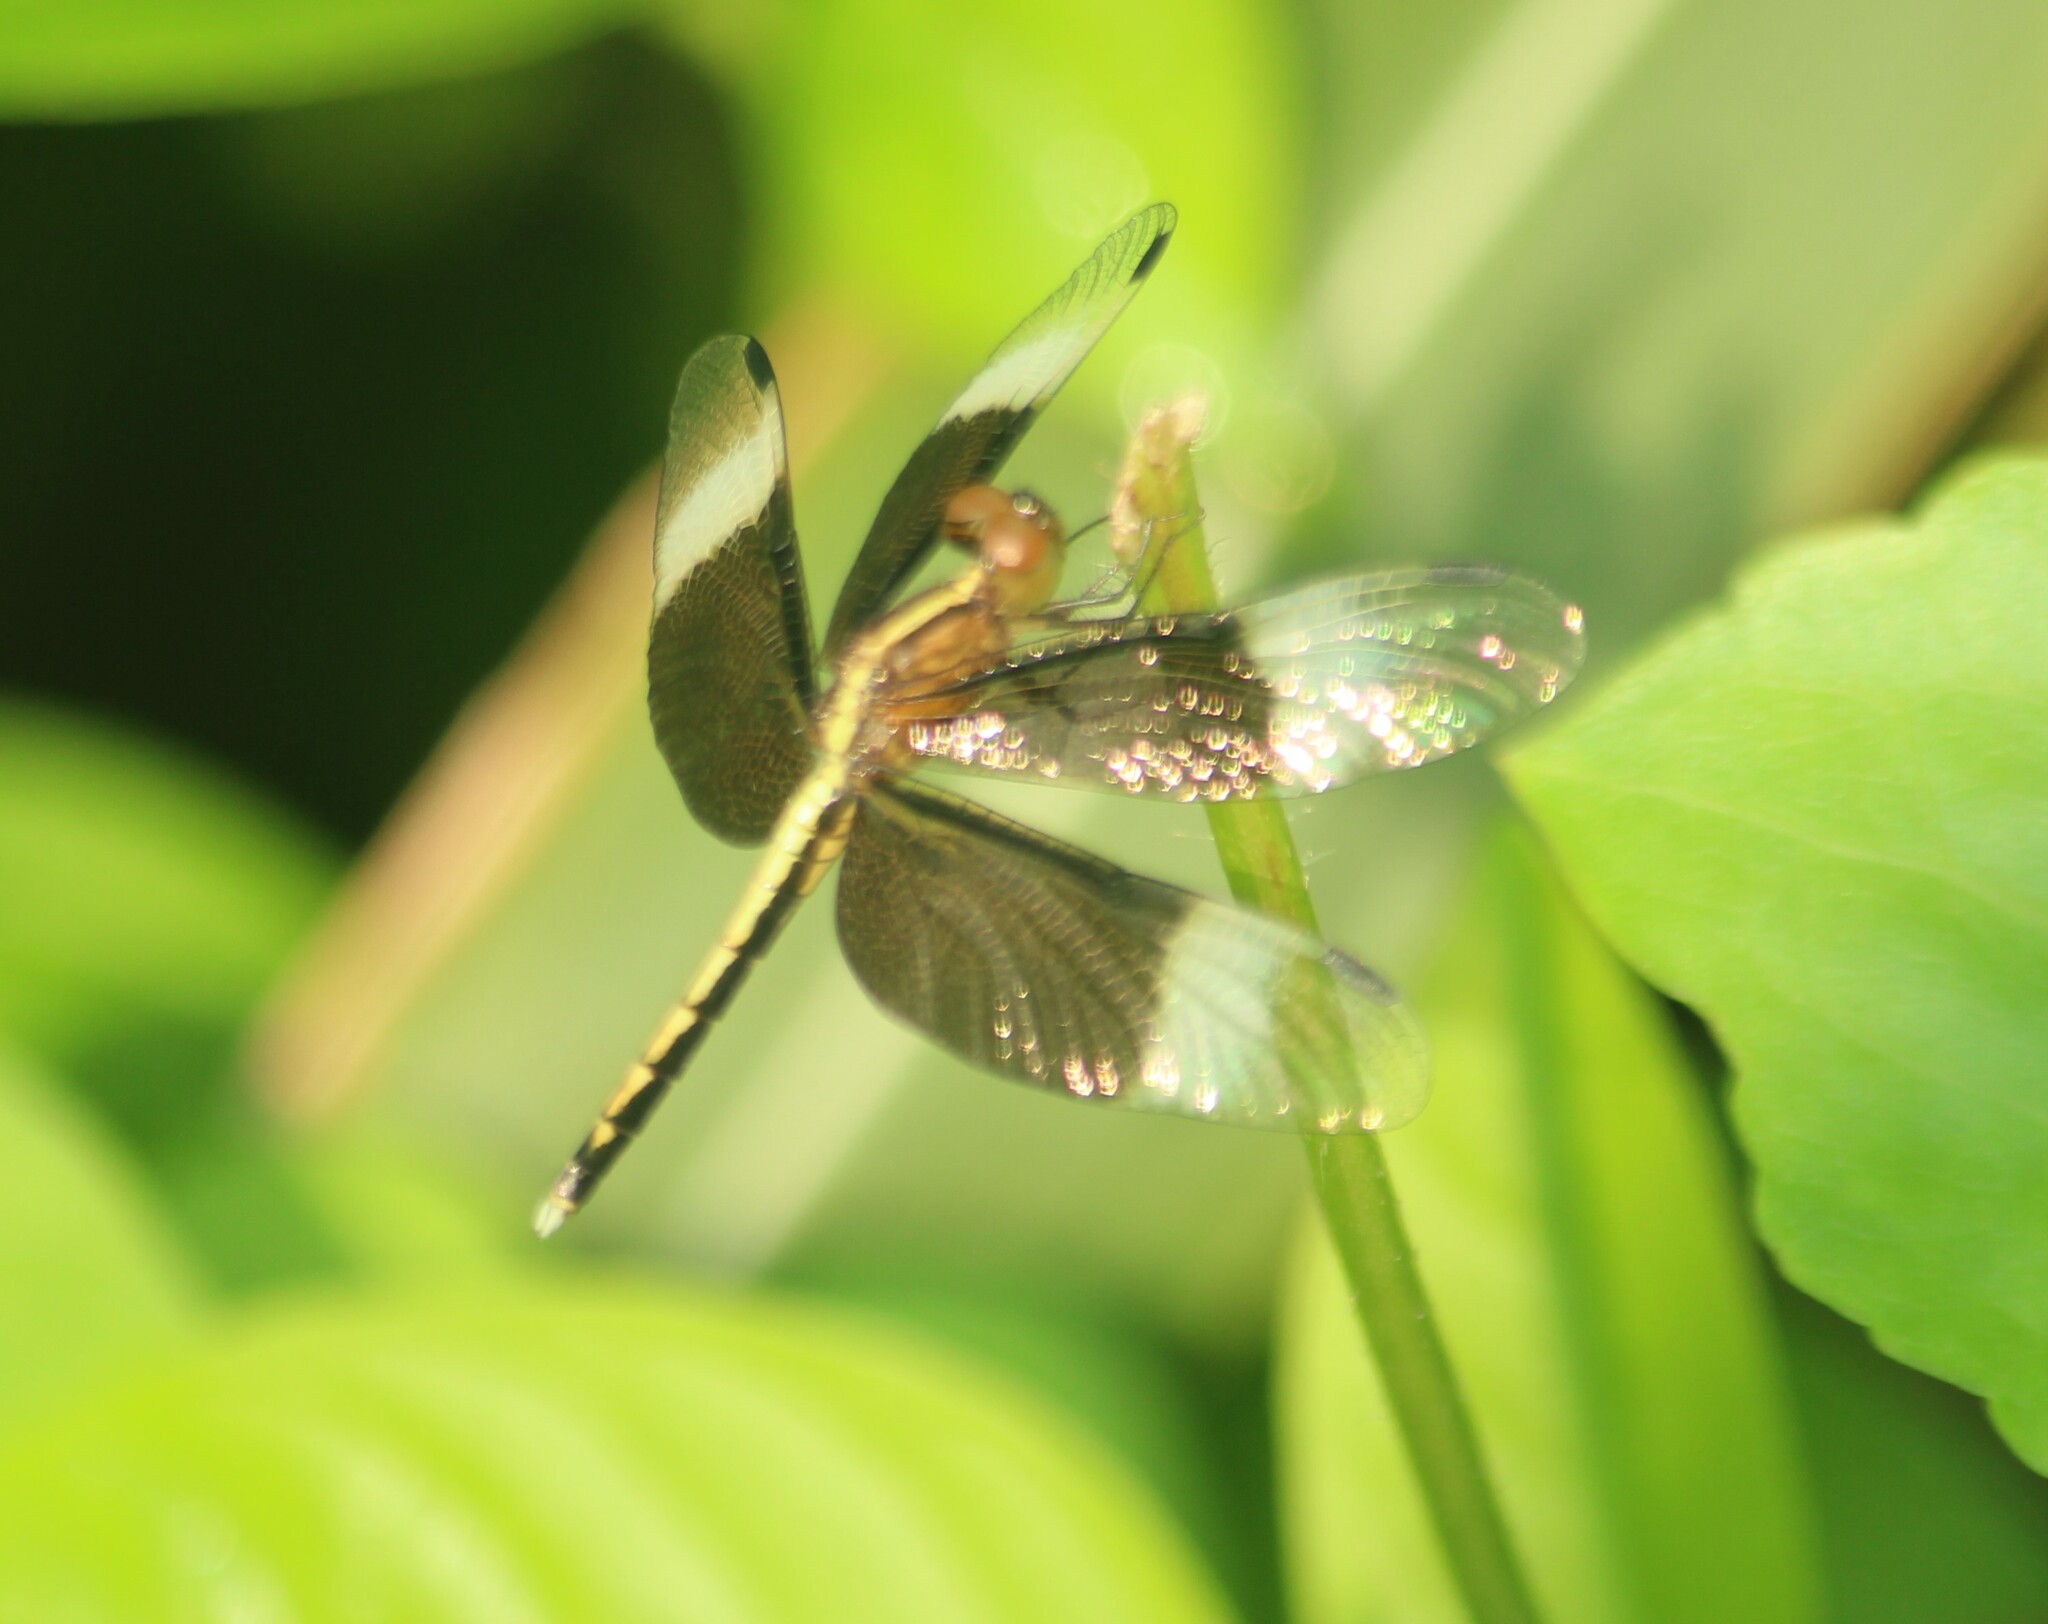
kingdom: Animalia
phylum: Arthropoda
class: Insecta
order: Odonata
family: Libellulidae
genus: Neurothemis
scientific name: Neurothemis tullia
